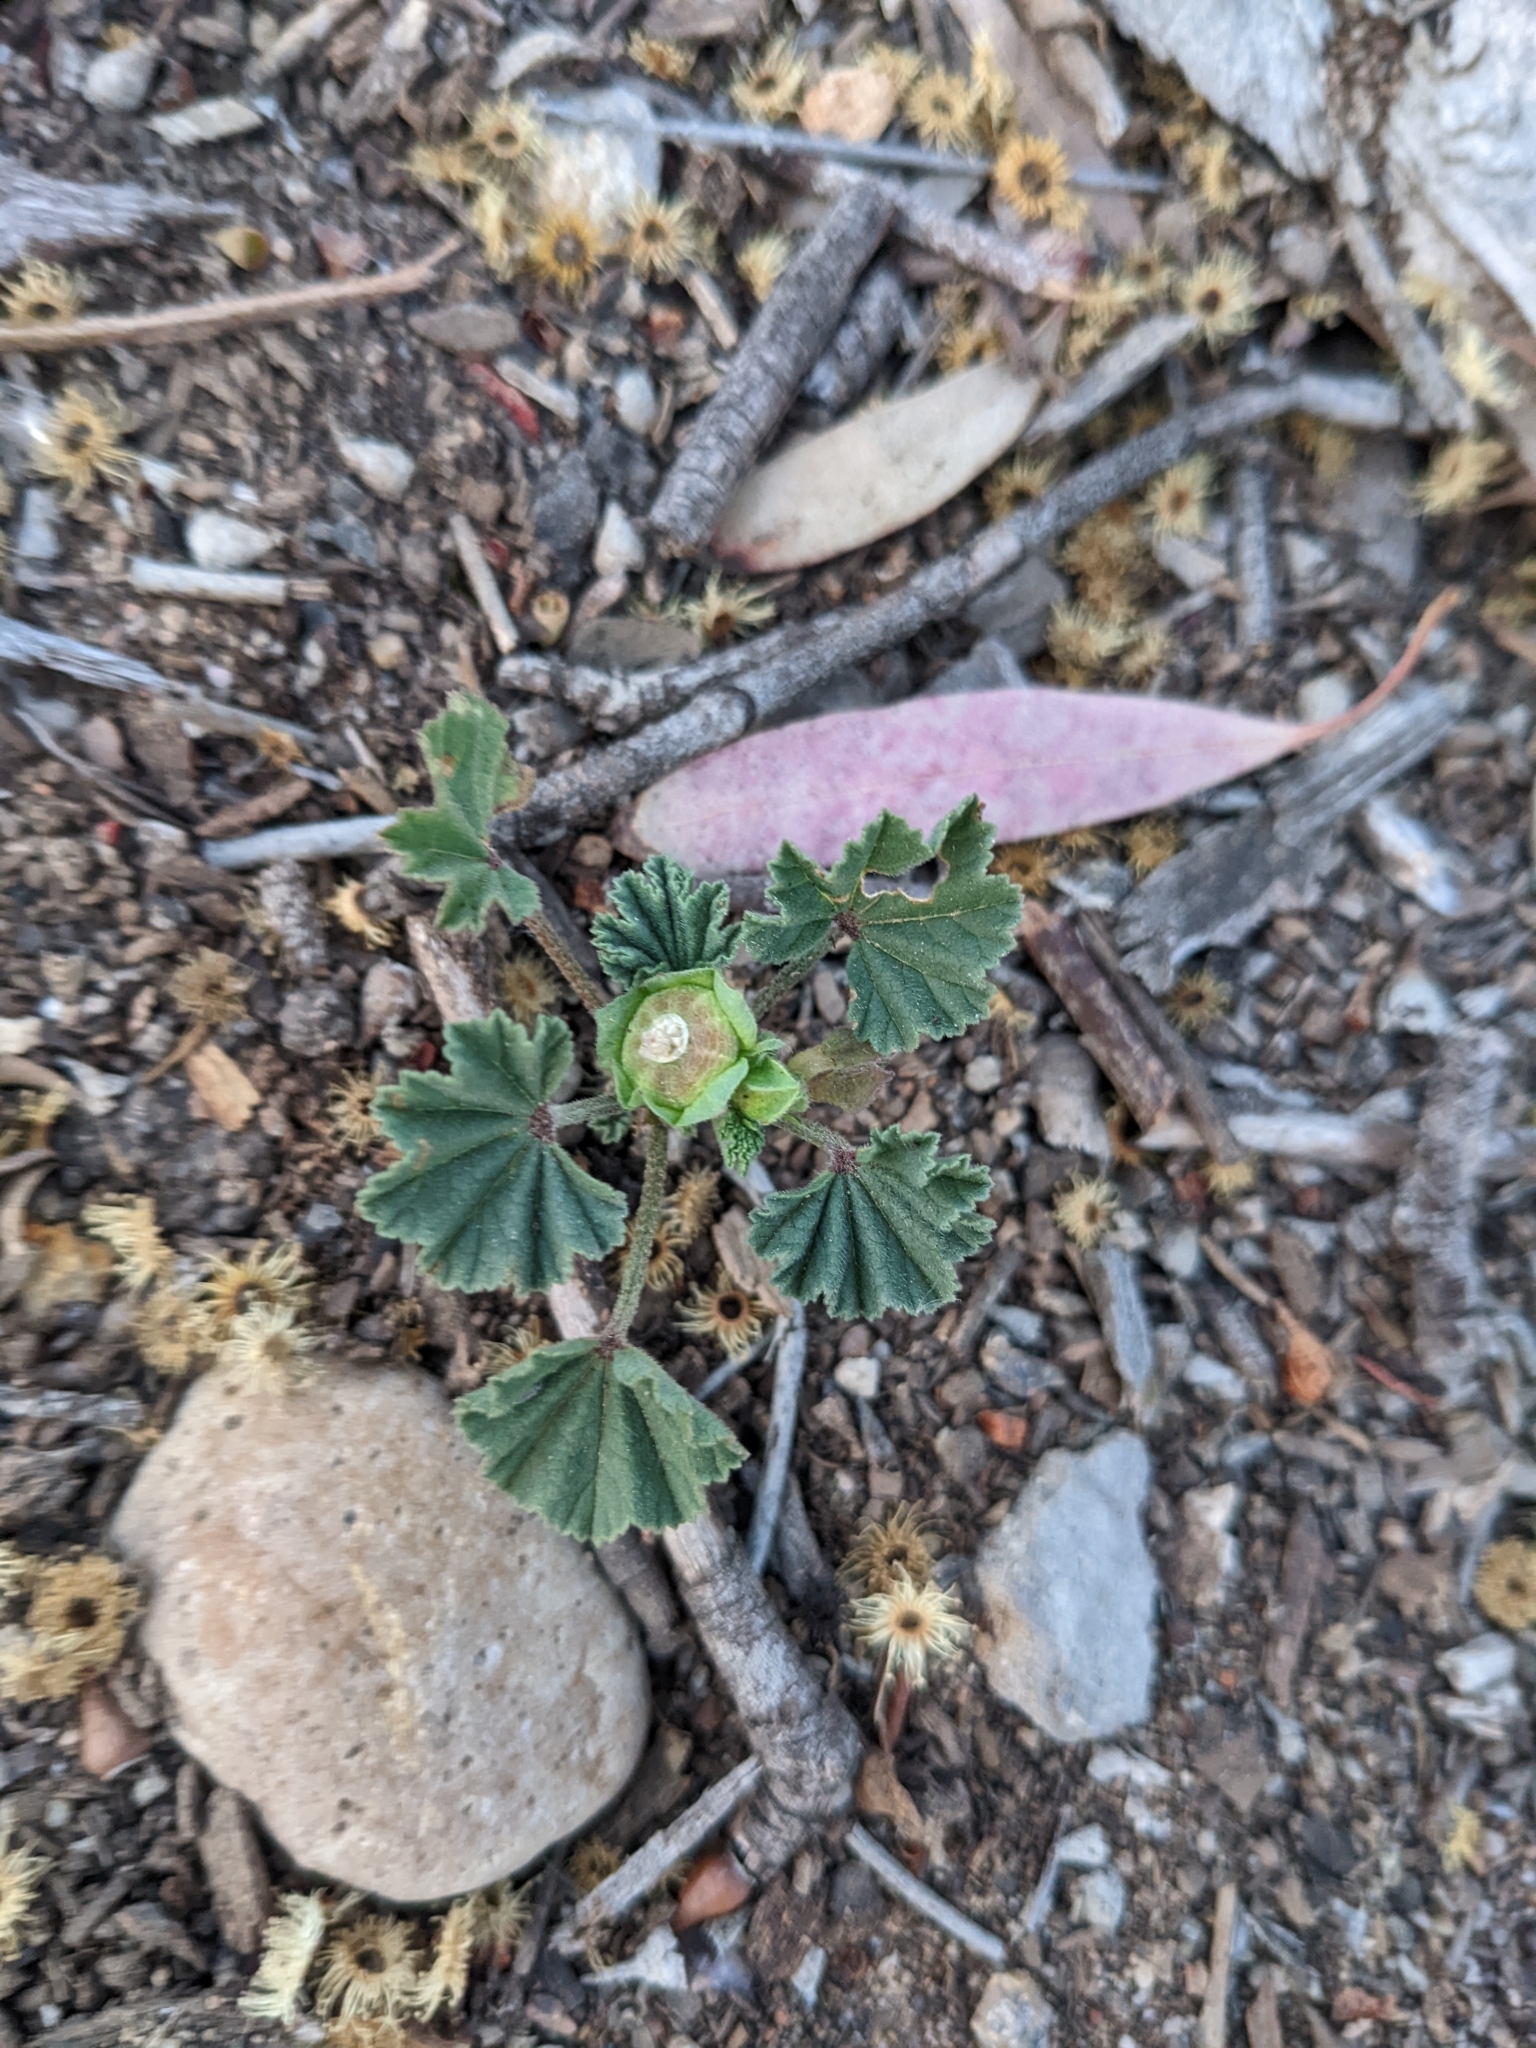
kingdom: Plantae
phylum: Tracheophyta
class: Magnoliopsida
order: Malvales
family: Malvaceae
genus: Malva
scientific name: Malva parviflora
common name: Least mallow
